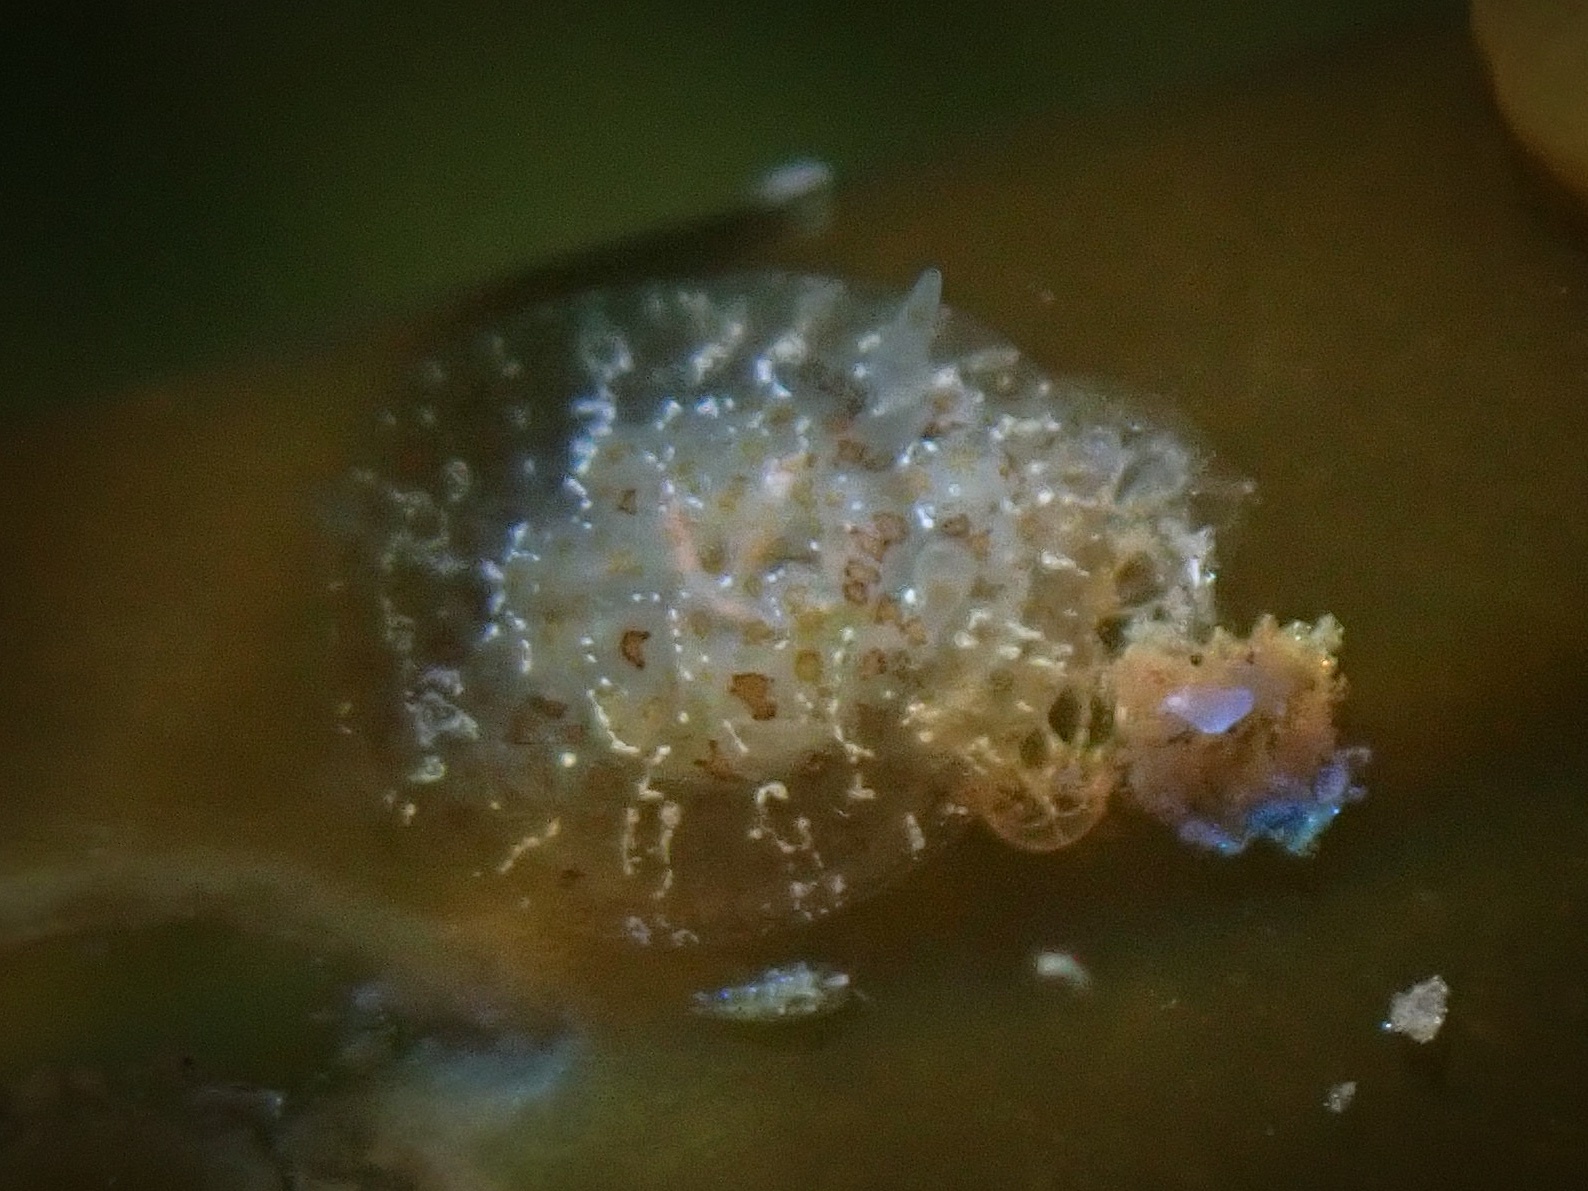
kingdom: Animalia
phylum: Mollusca
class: Gastropoda
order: Nudibranchia
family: Corambidae
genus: Corambe
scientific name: Corambe steinbergae
